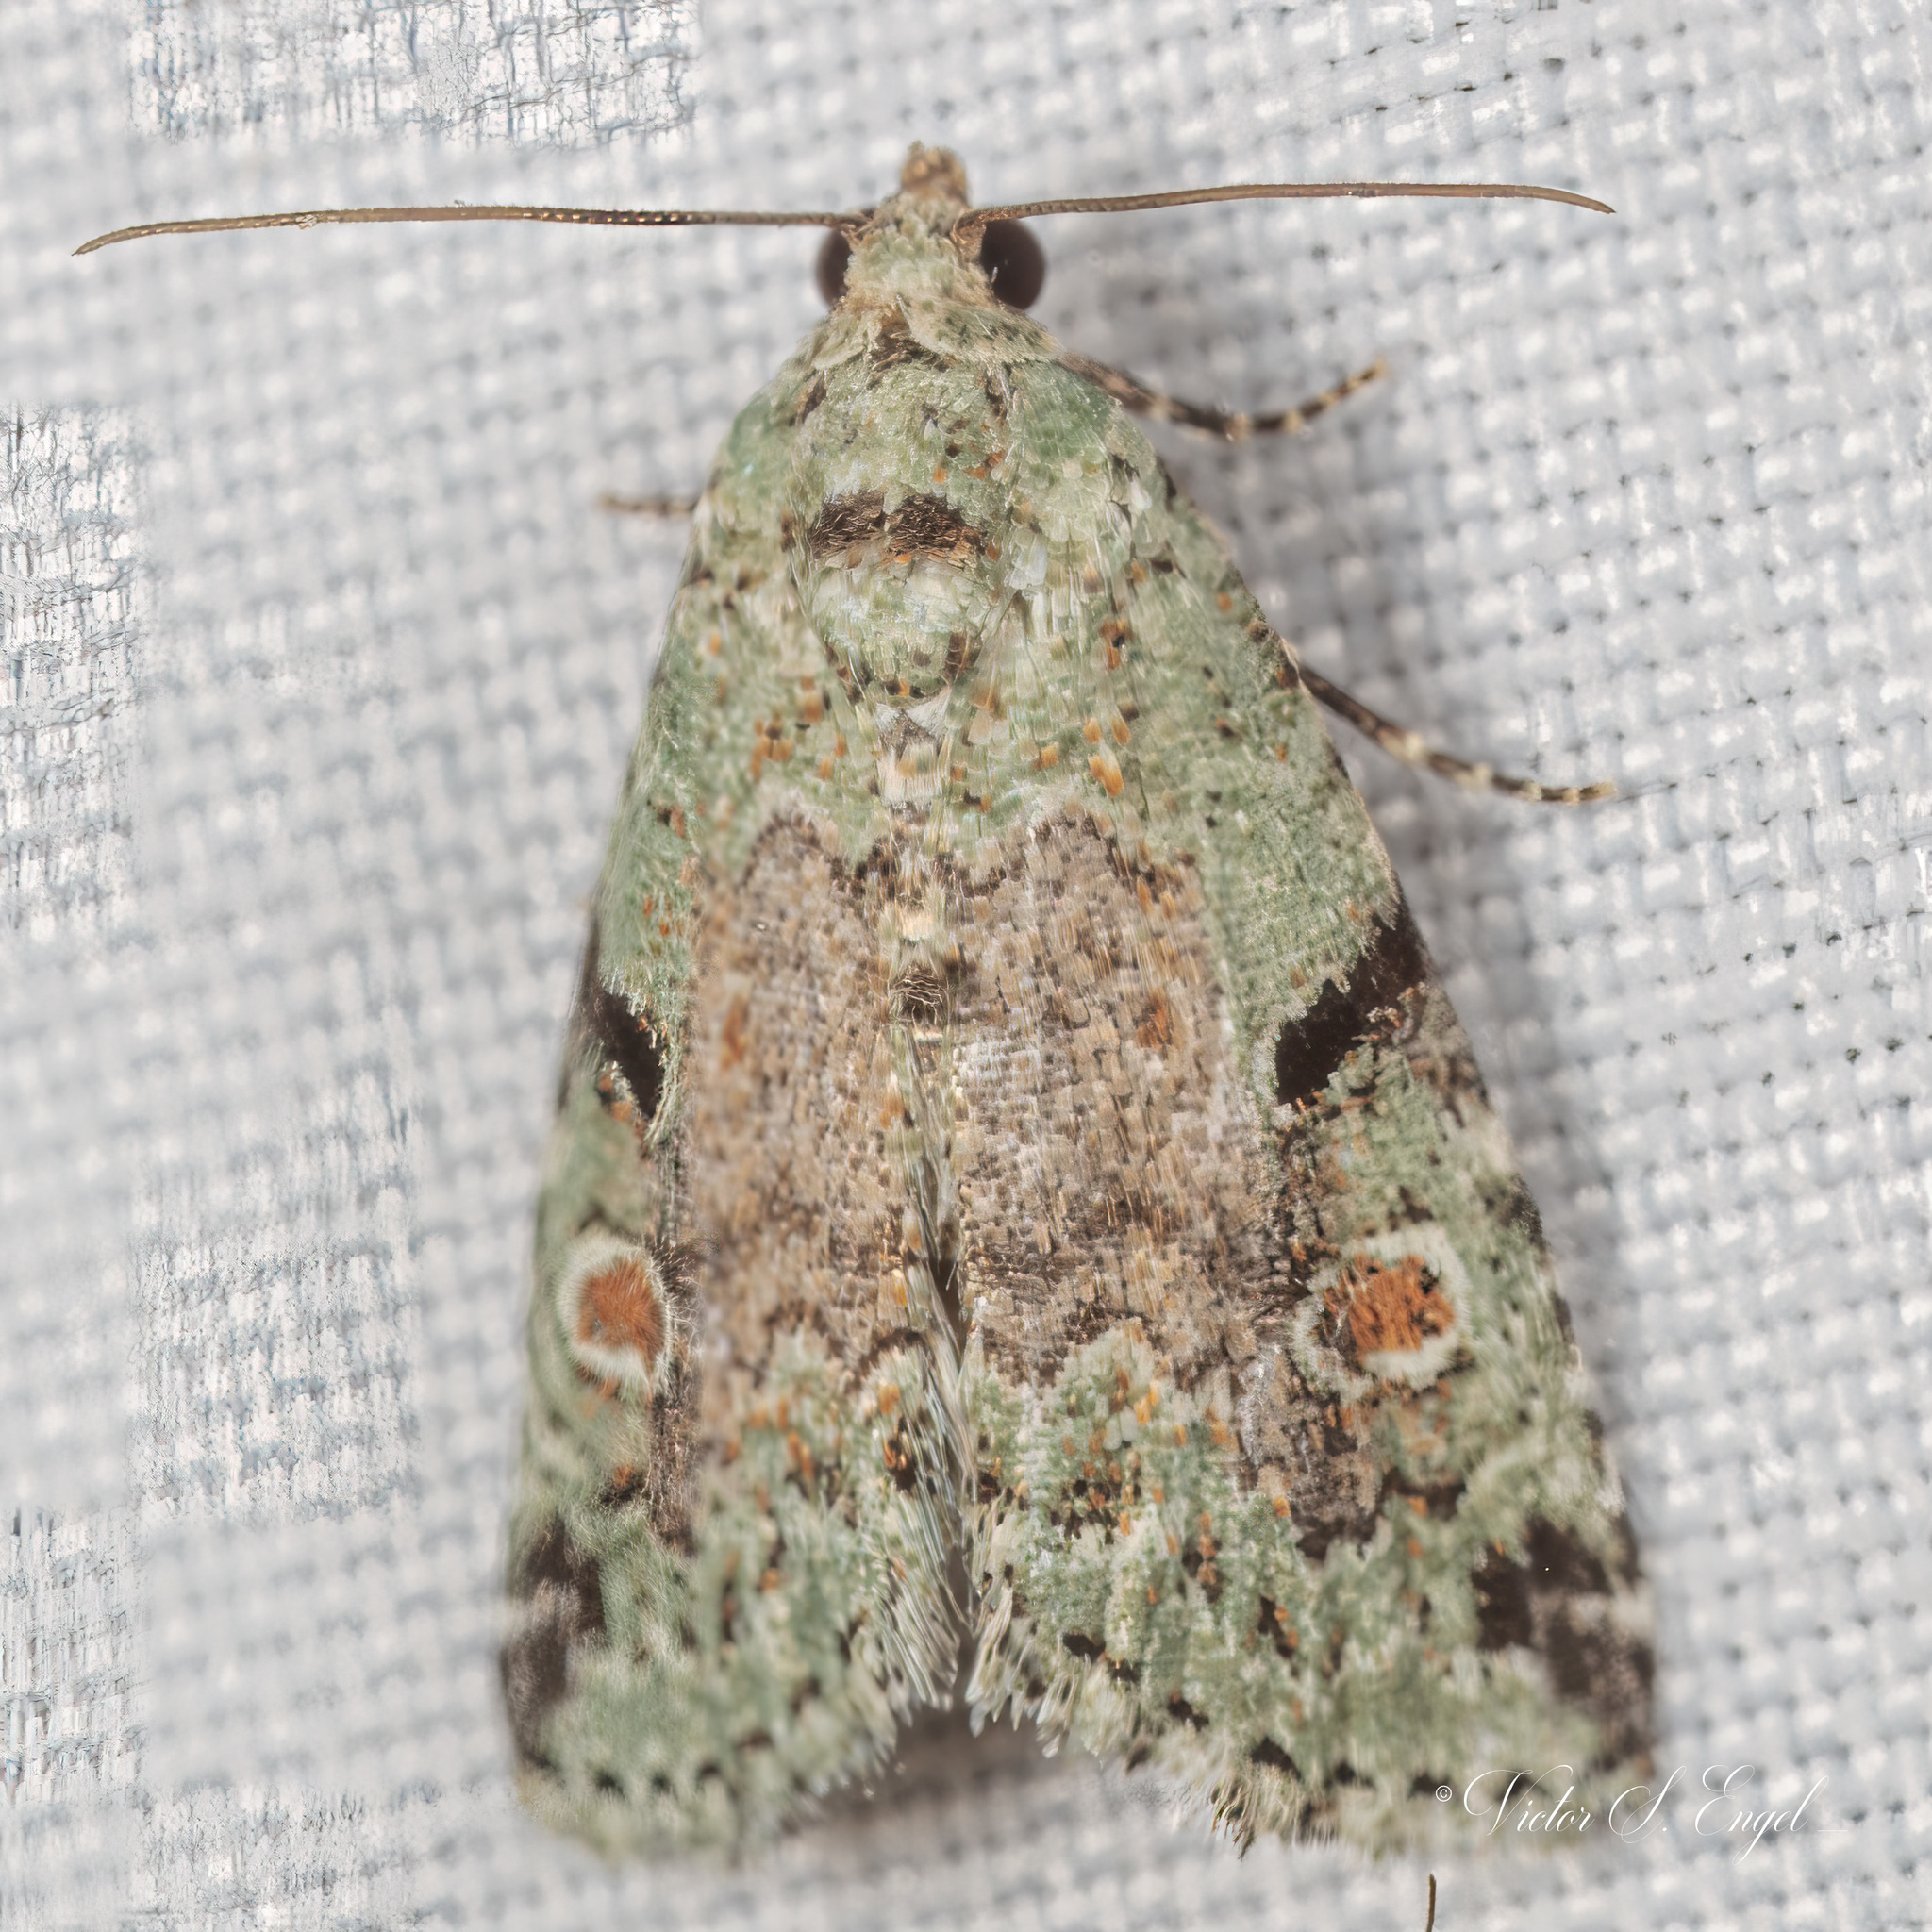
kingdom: Animalia
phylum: Arthropoda
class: Insecta
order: Lepidoptera
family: Noctuidae
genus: Maliattha
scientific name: Maliattha concinnimacula
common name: Red-spotted glyph
